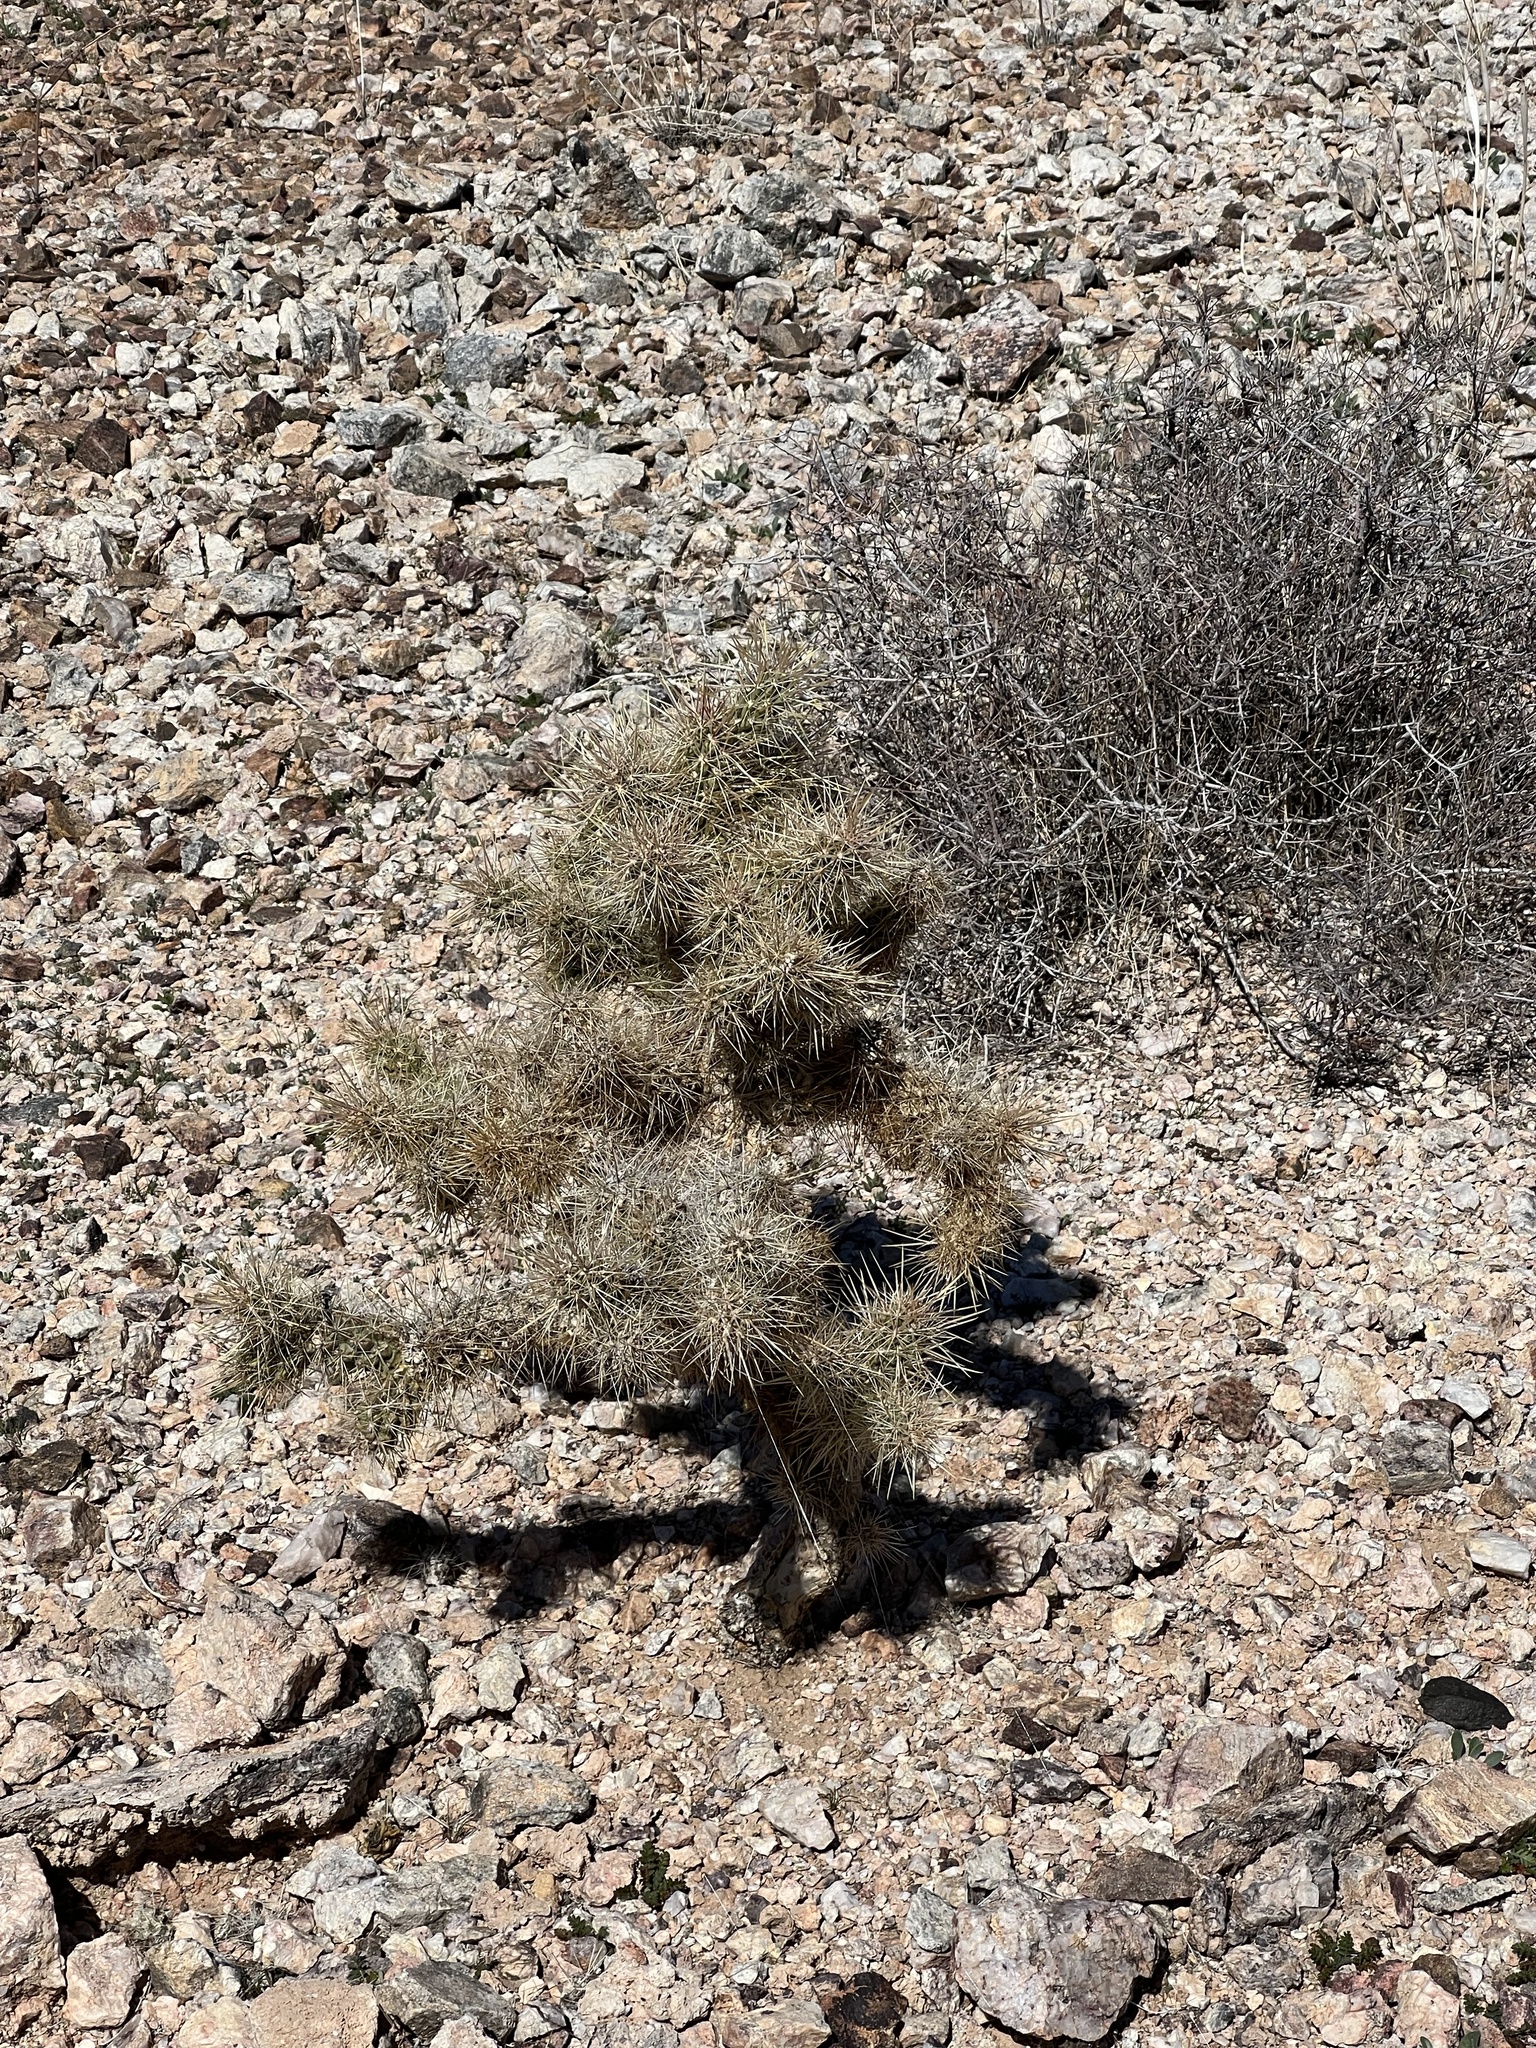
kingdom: Plantae
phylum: Tracheophyta
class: Magnoliopsida
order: Caryophyllales
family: Cactaceae
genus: Cylindropuntia
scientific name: Cylindropuntia echinocarpa
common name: Ground cholla
